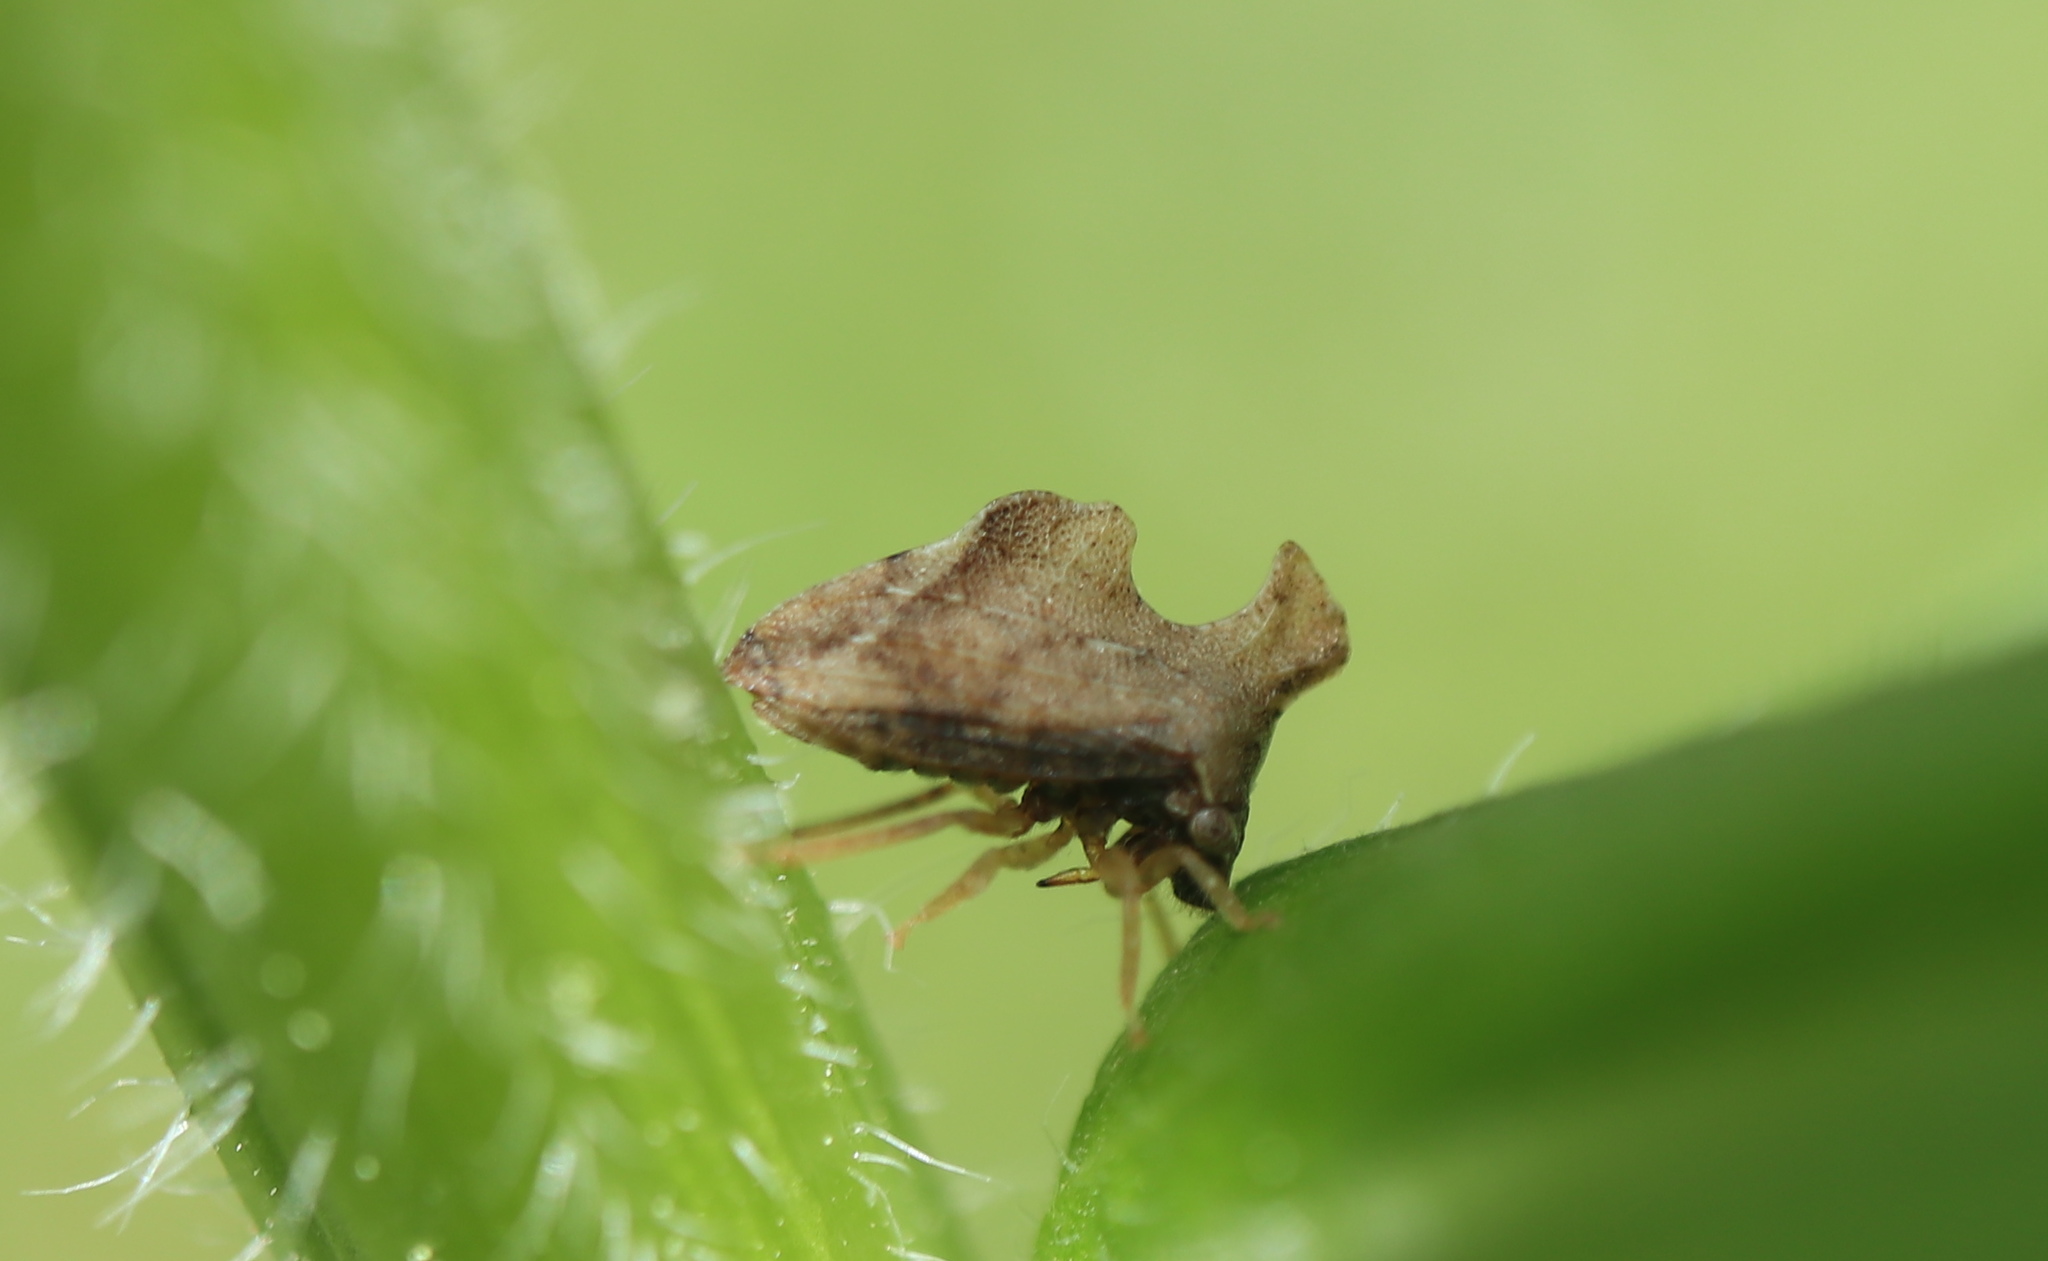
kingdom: Animalia
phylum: Arthropoda
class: Insecta
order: Hemiptera
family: Membracidae
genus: Entylia
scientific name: Entylia carinata
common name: Keeled treehopper
